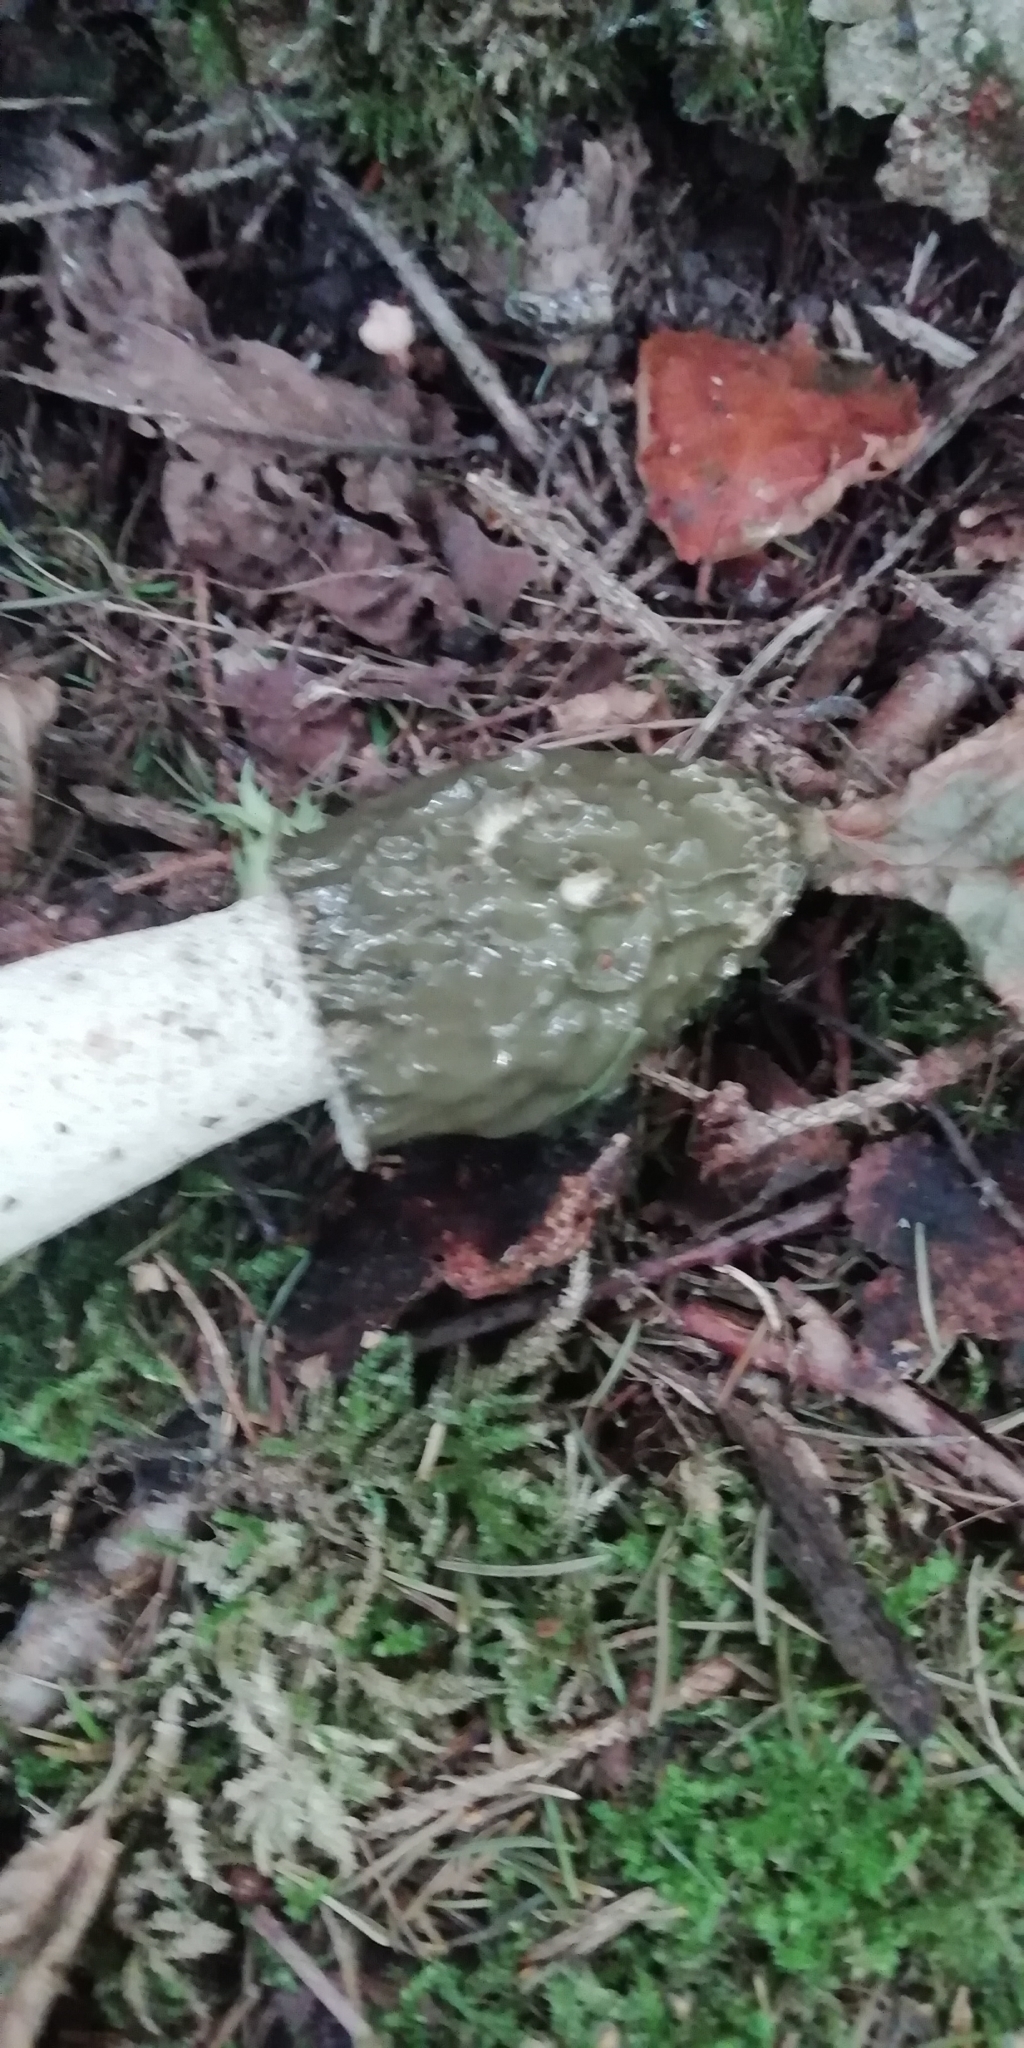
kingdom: Fungi
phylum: Basidiomycota
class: Agaricomycetes
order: Phallales
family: Phallaceae
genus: Phallus
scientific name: Phallus impudicus
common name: Common stinkhorn
